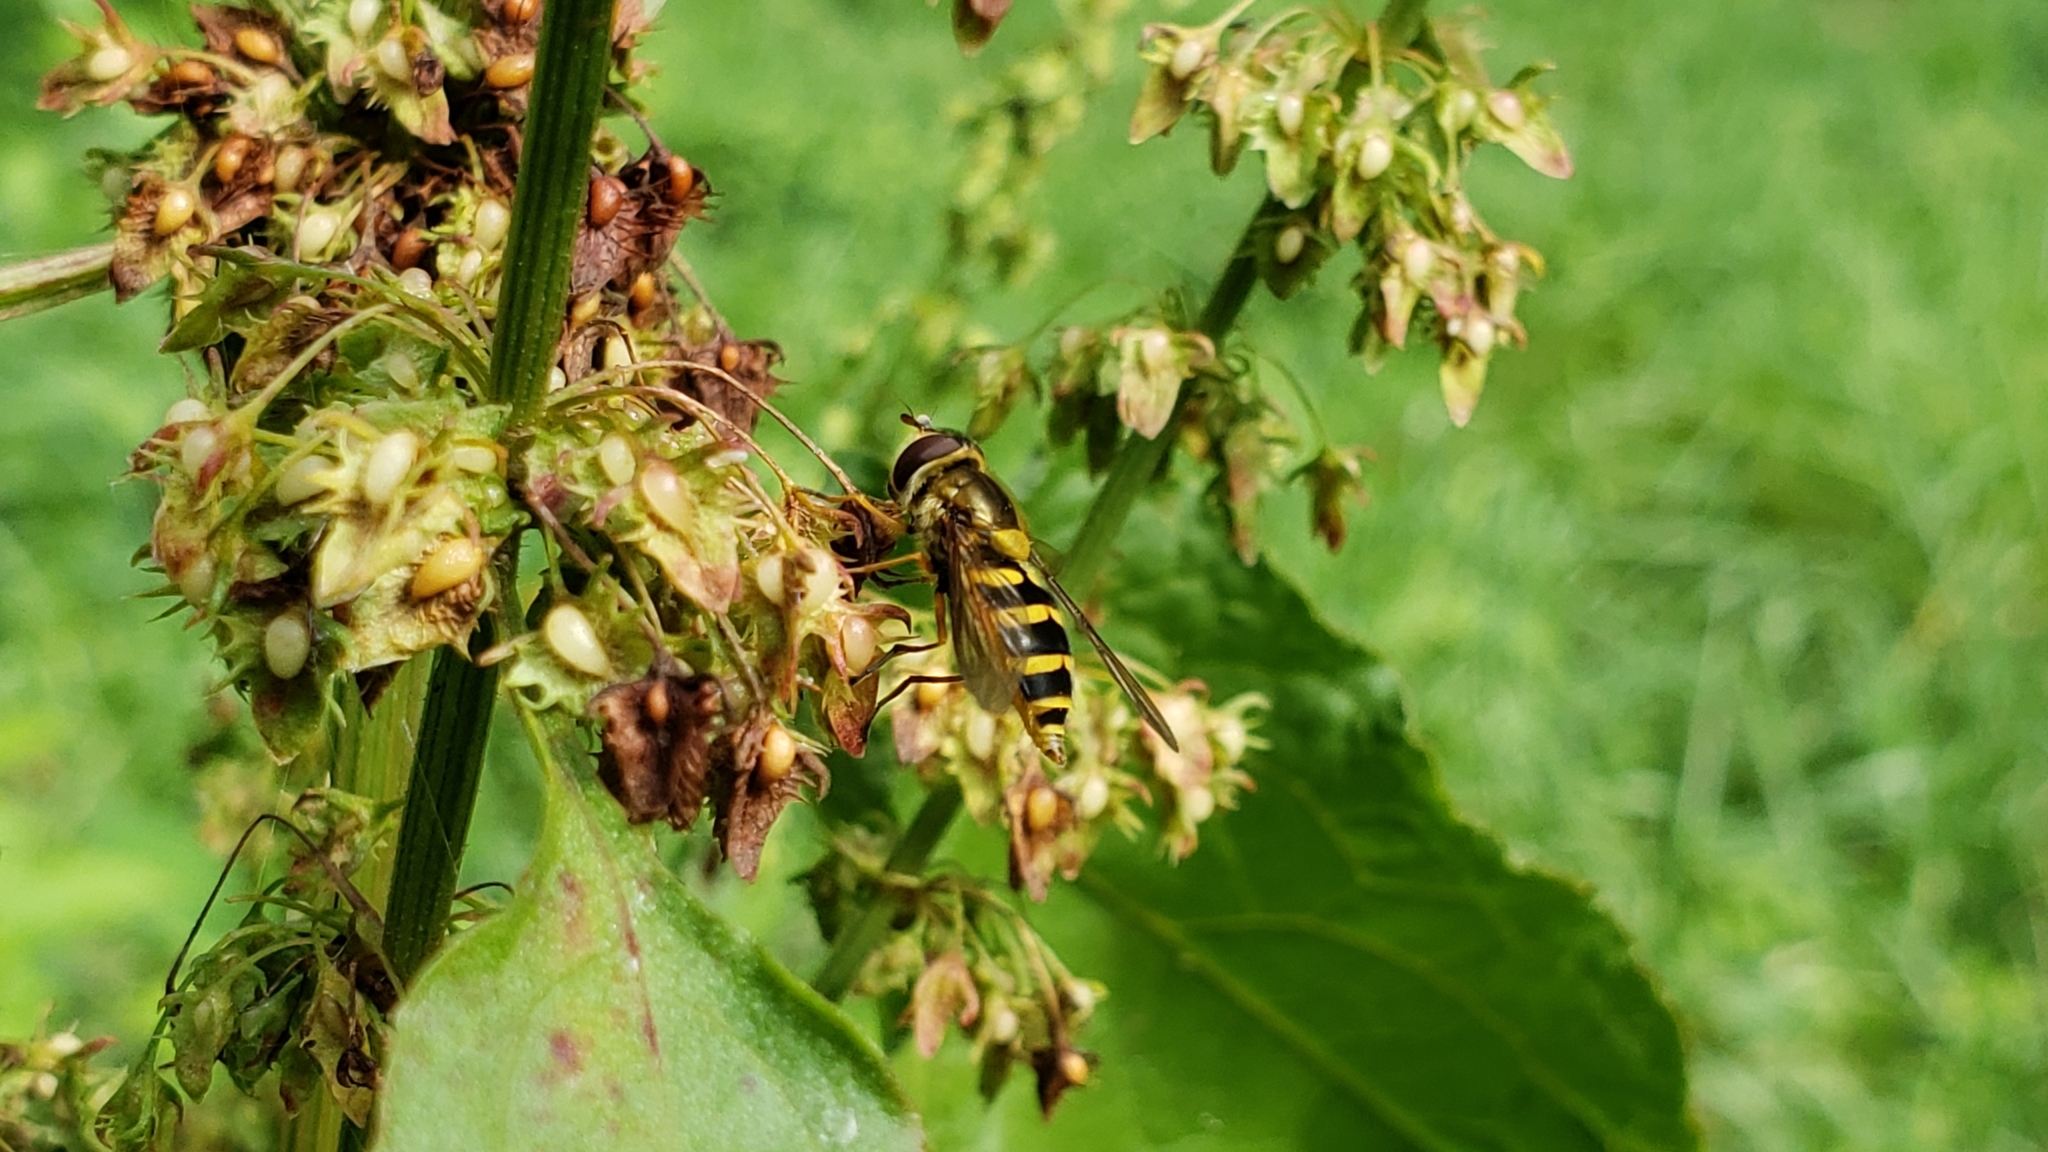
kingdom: Animalia
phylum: Arthropoda
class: Insecta
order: Diptera
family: Syrphidae
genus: Syrphus
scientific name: Syrphus ribesii
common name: Common flower fly
